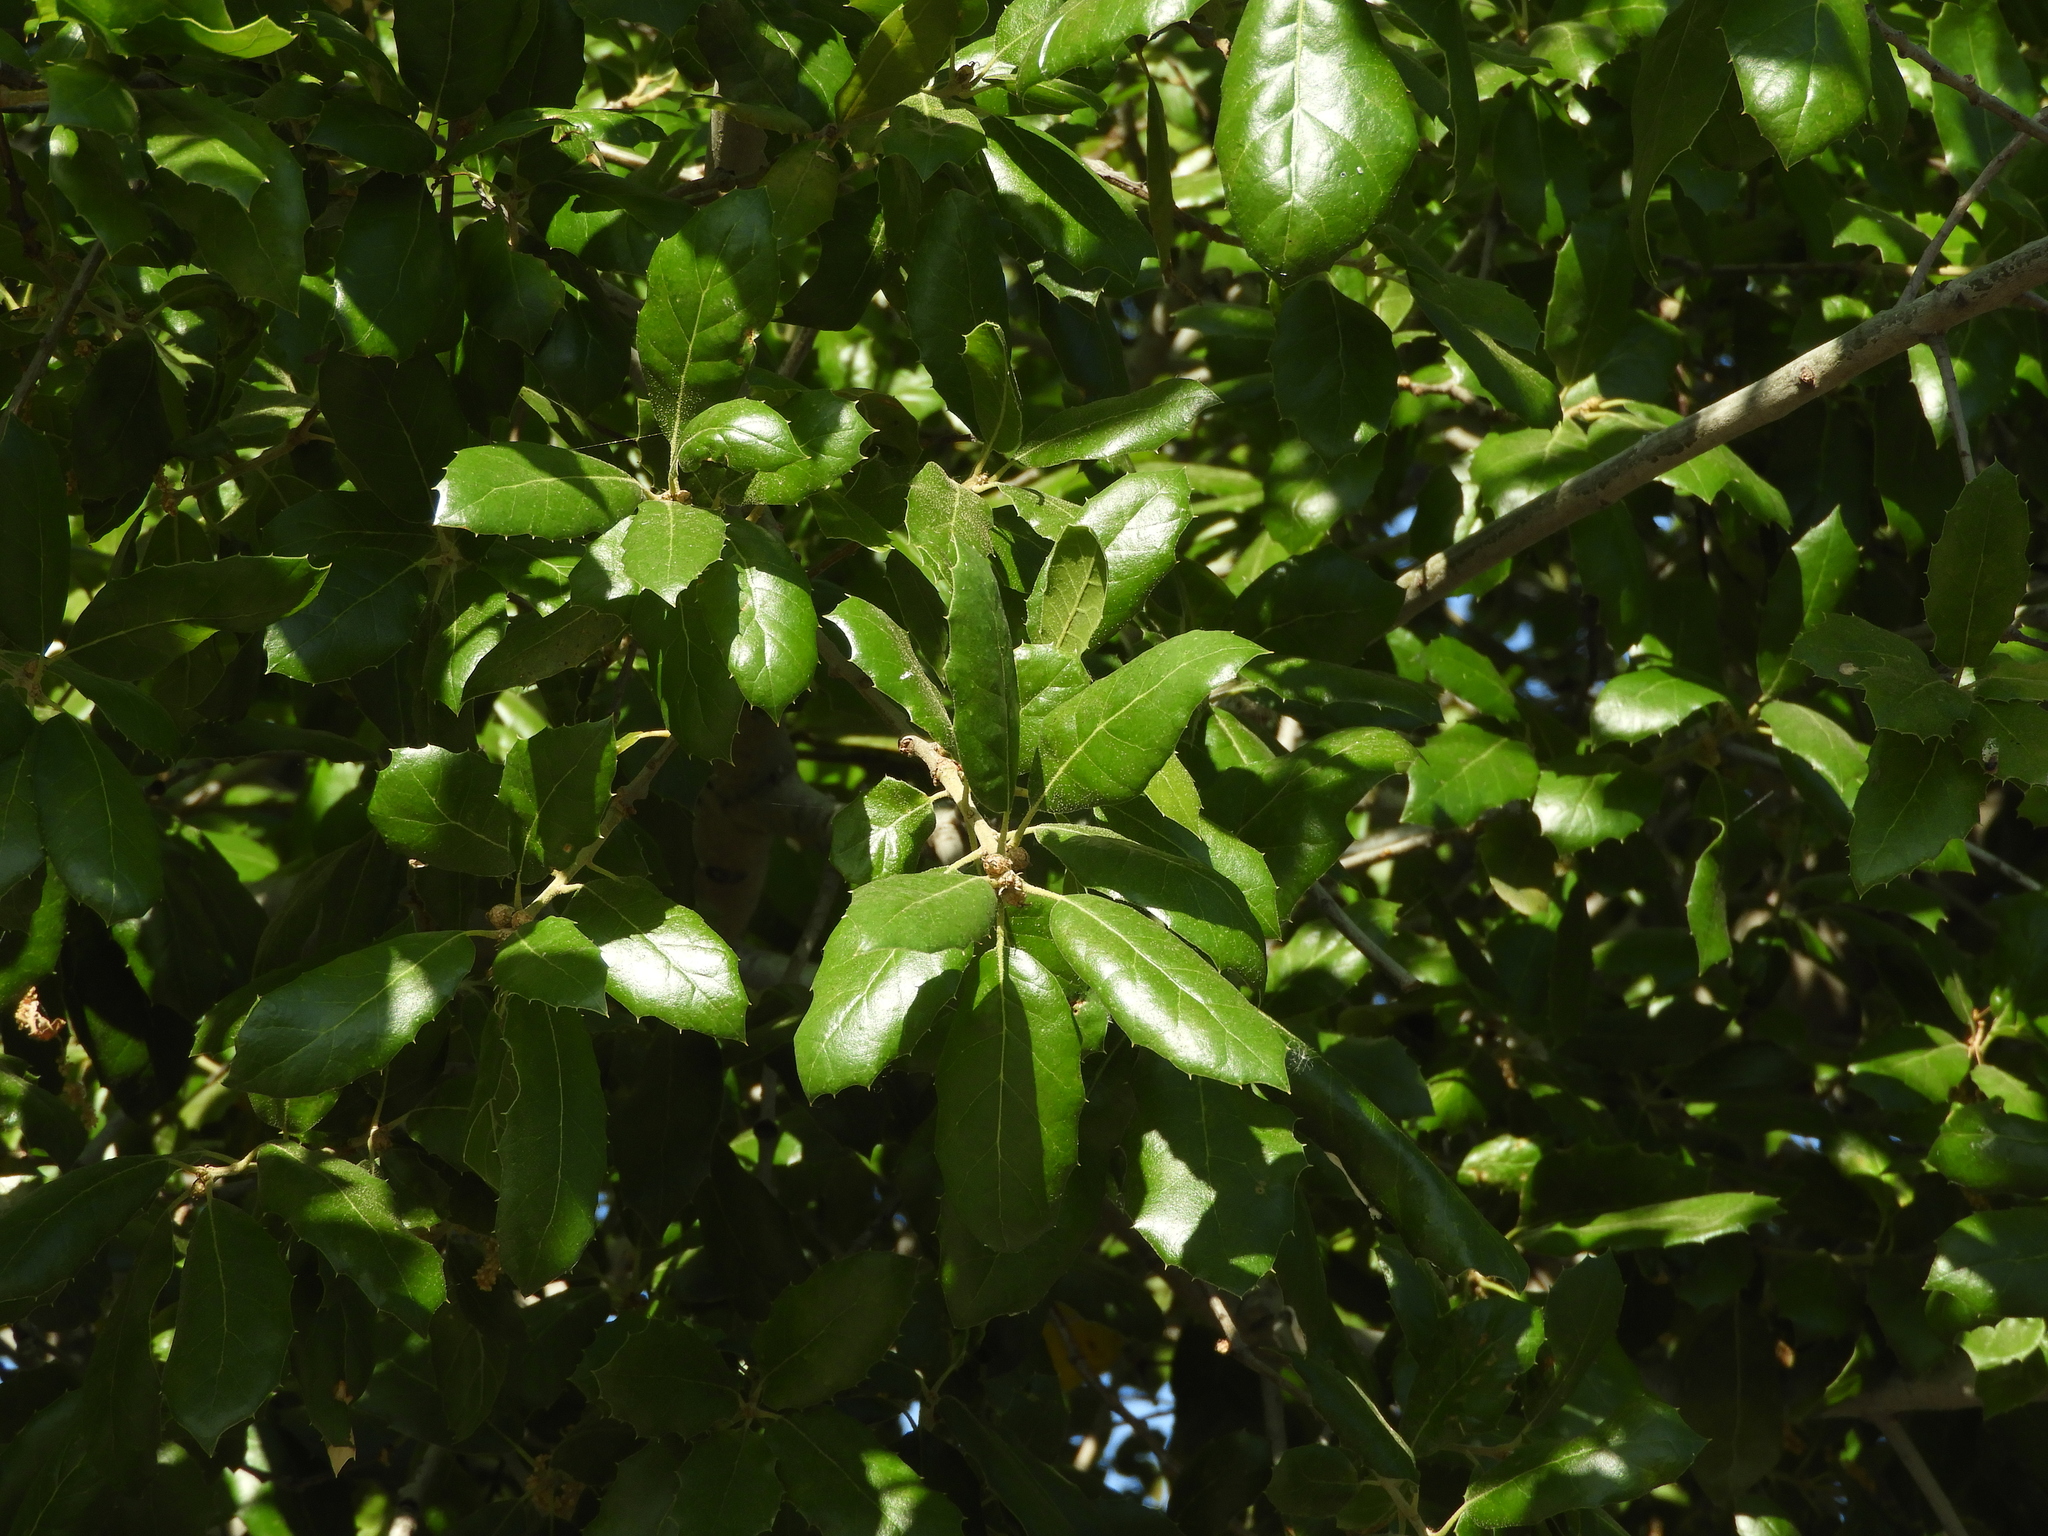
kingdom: Plantae
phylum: Tracheophyta
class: Magnoliopsida
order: Fagales
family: Fagaceae
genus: Quercus
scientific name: Quercus agrifolia
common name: California live oak
